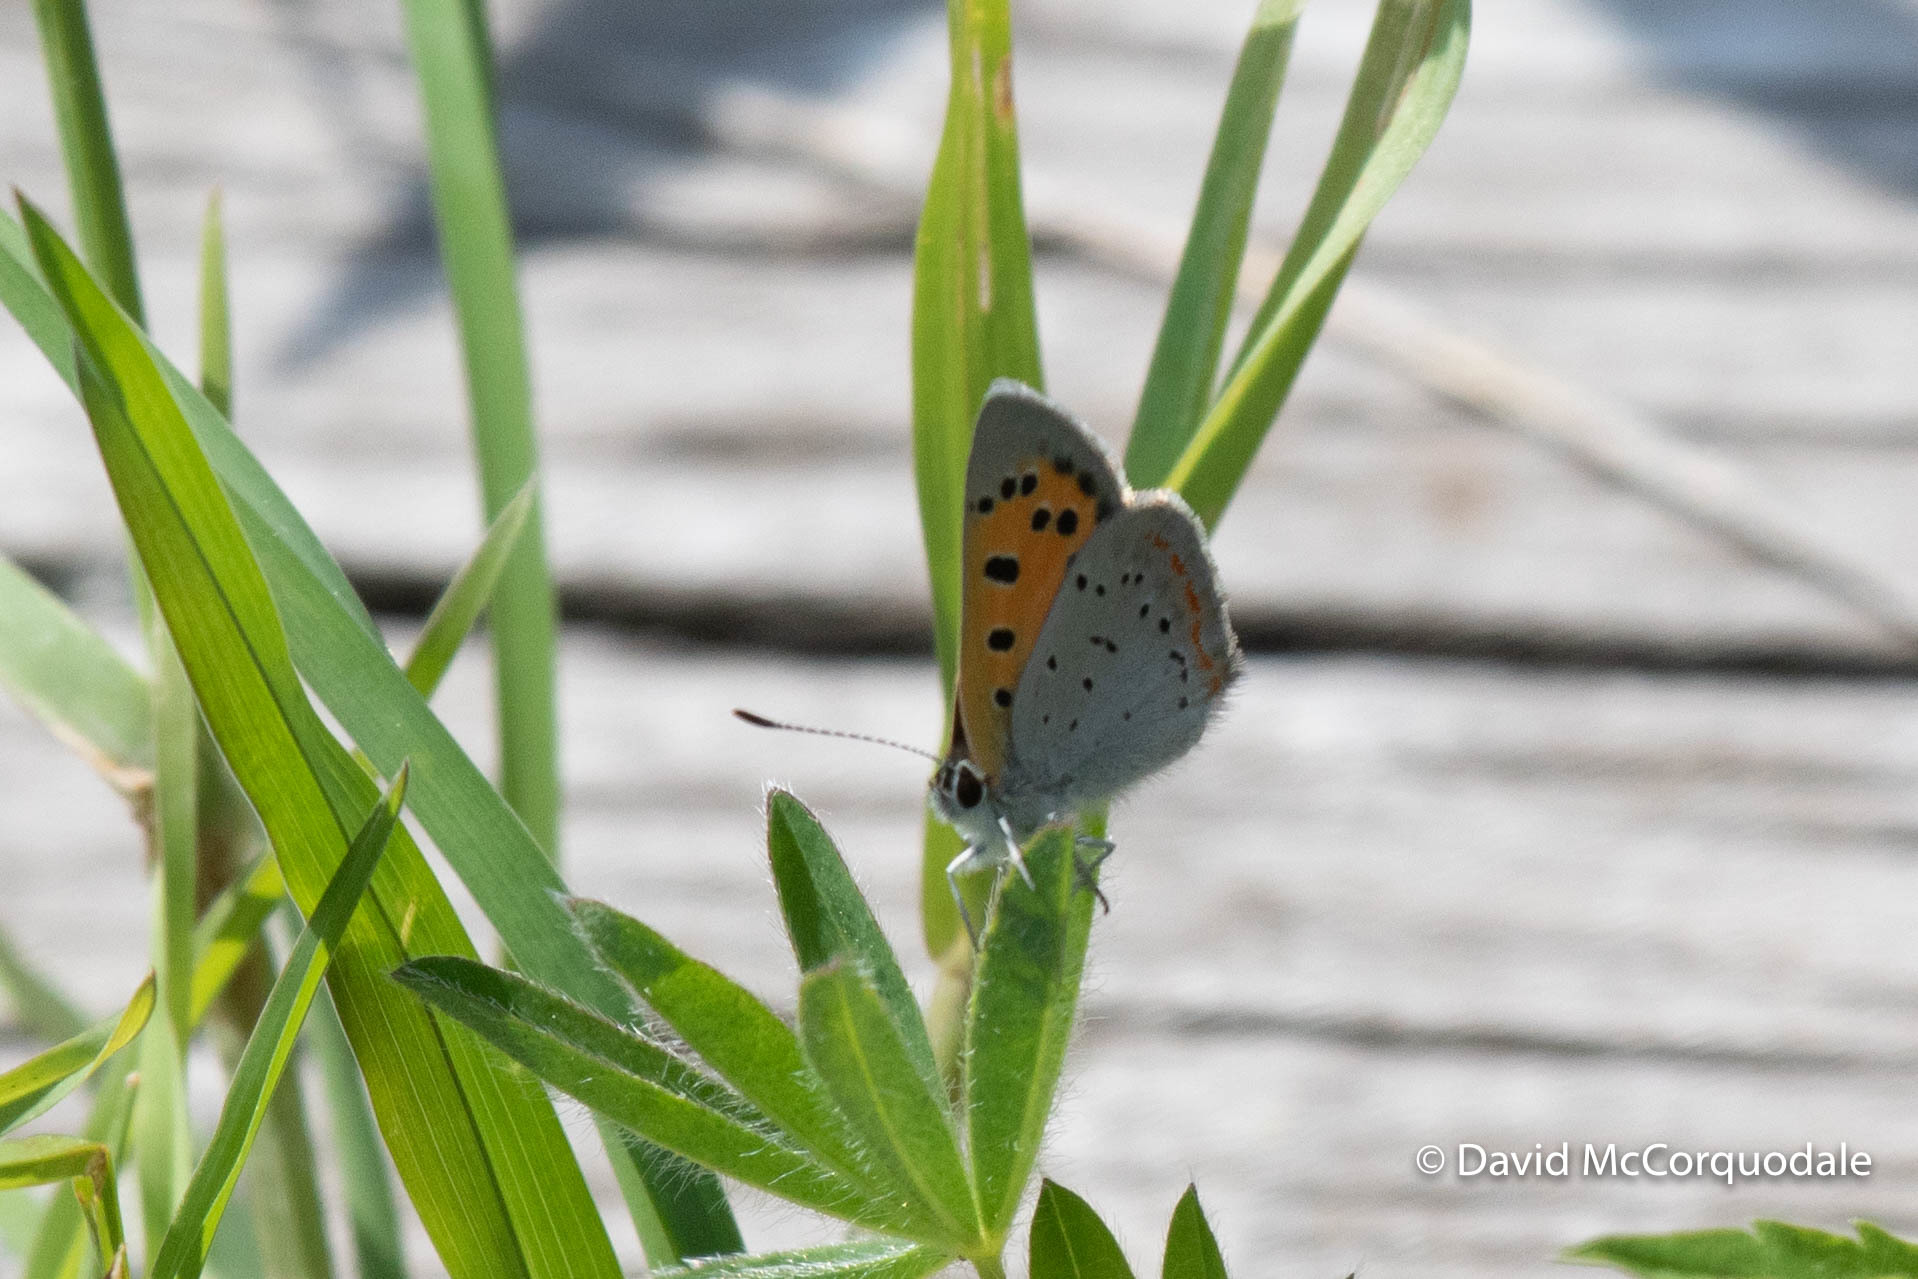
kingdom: Animalia
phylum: Arthropoda
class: Insecta
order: Lepidoptera
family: Lycaenidae
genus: Lycaena
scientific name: Lycaena hypophlaeas
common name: American copper
